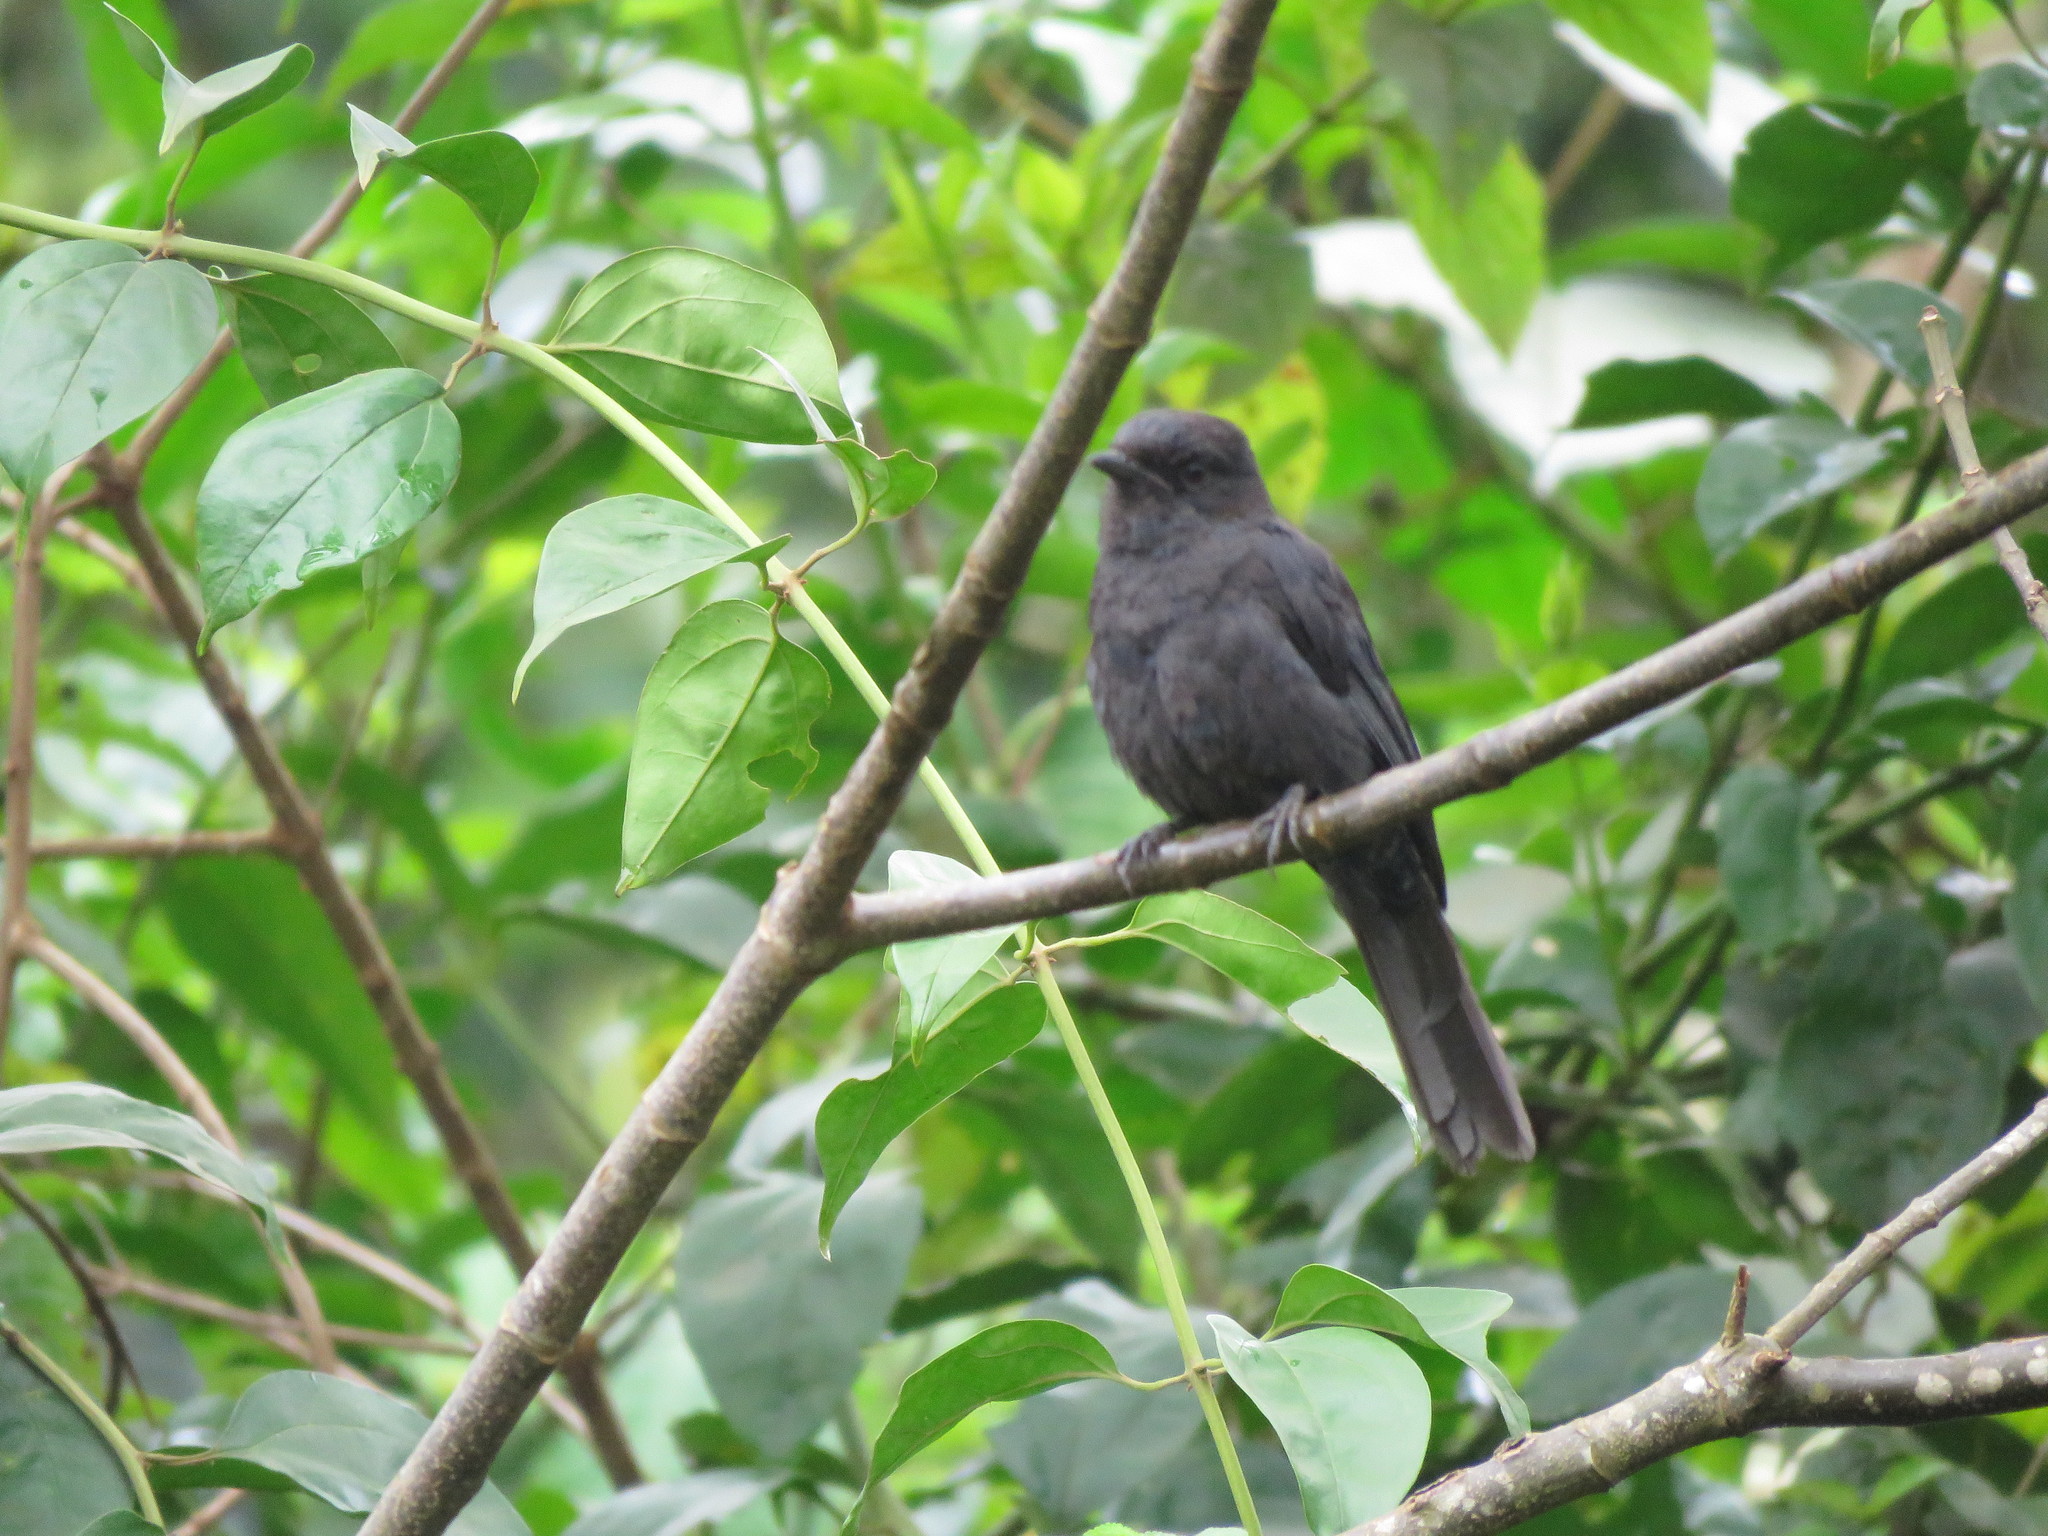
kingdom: Animalia
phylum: Chordata
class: Aves
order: Passeriformes
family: Muscicapidae
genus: Melaenornis
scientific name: Melaenornis edolioides
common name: Northern black flycatcher
